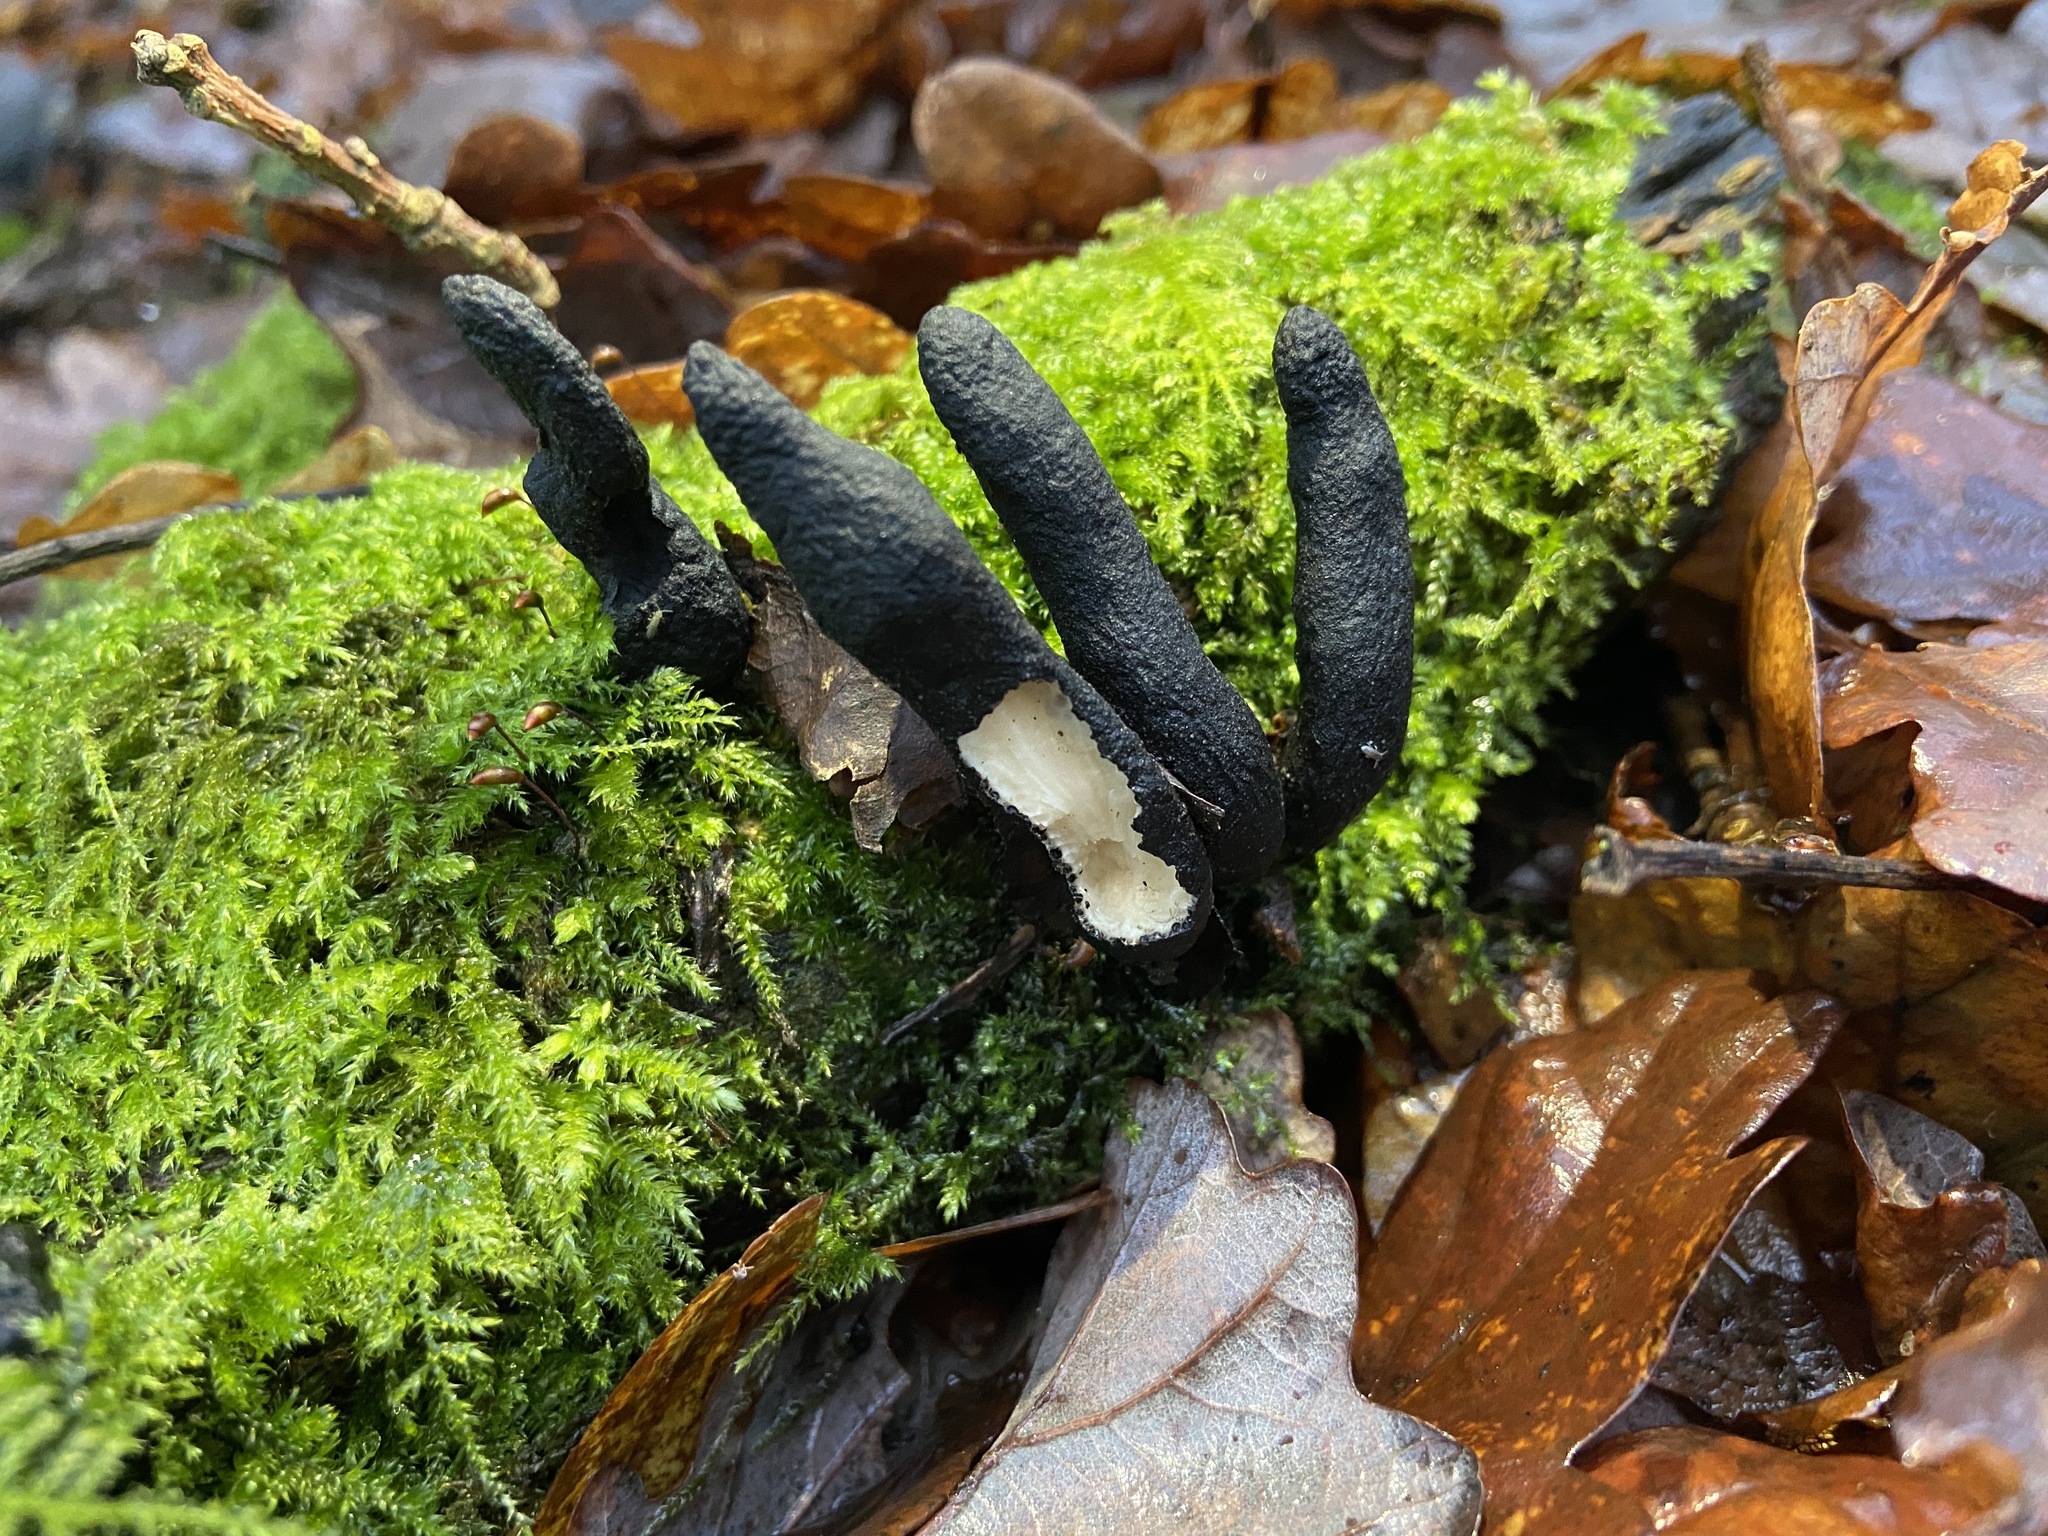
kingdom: Fungi
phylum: Ascomycota
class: Sordariomycetes
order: Xylariales
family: Xylariaceae
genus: Xylaria
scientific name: Xylaria polymorpha
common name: Dead man's fingers
